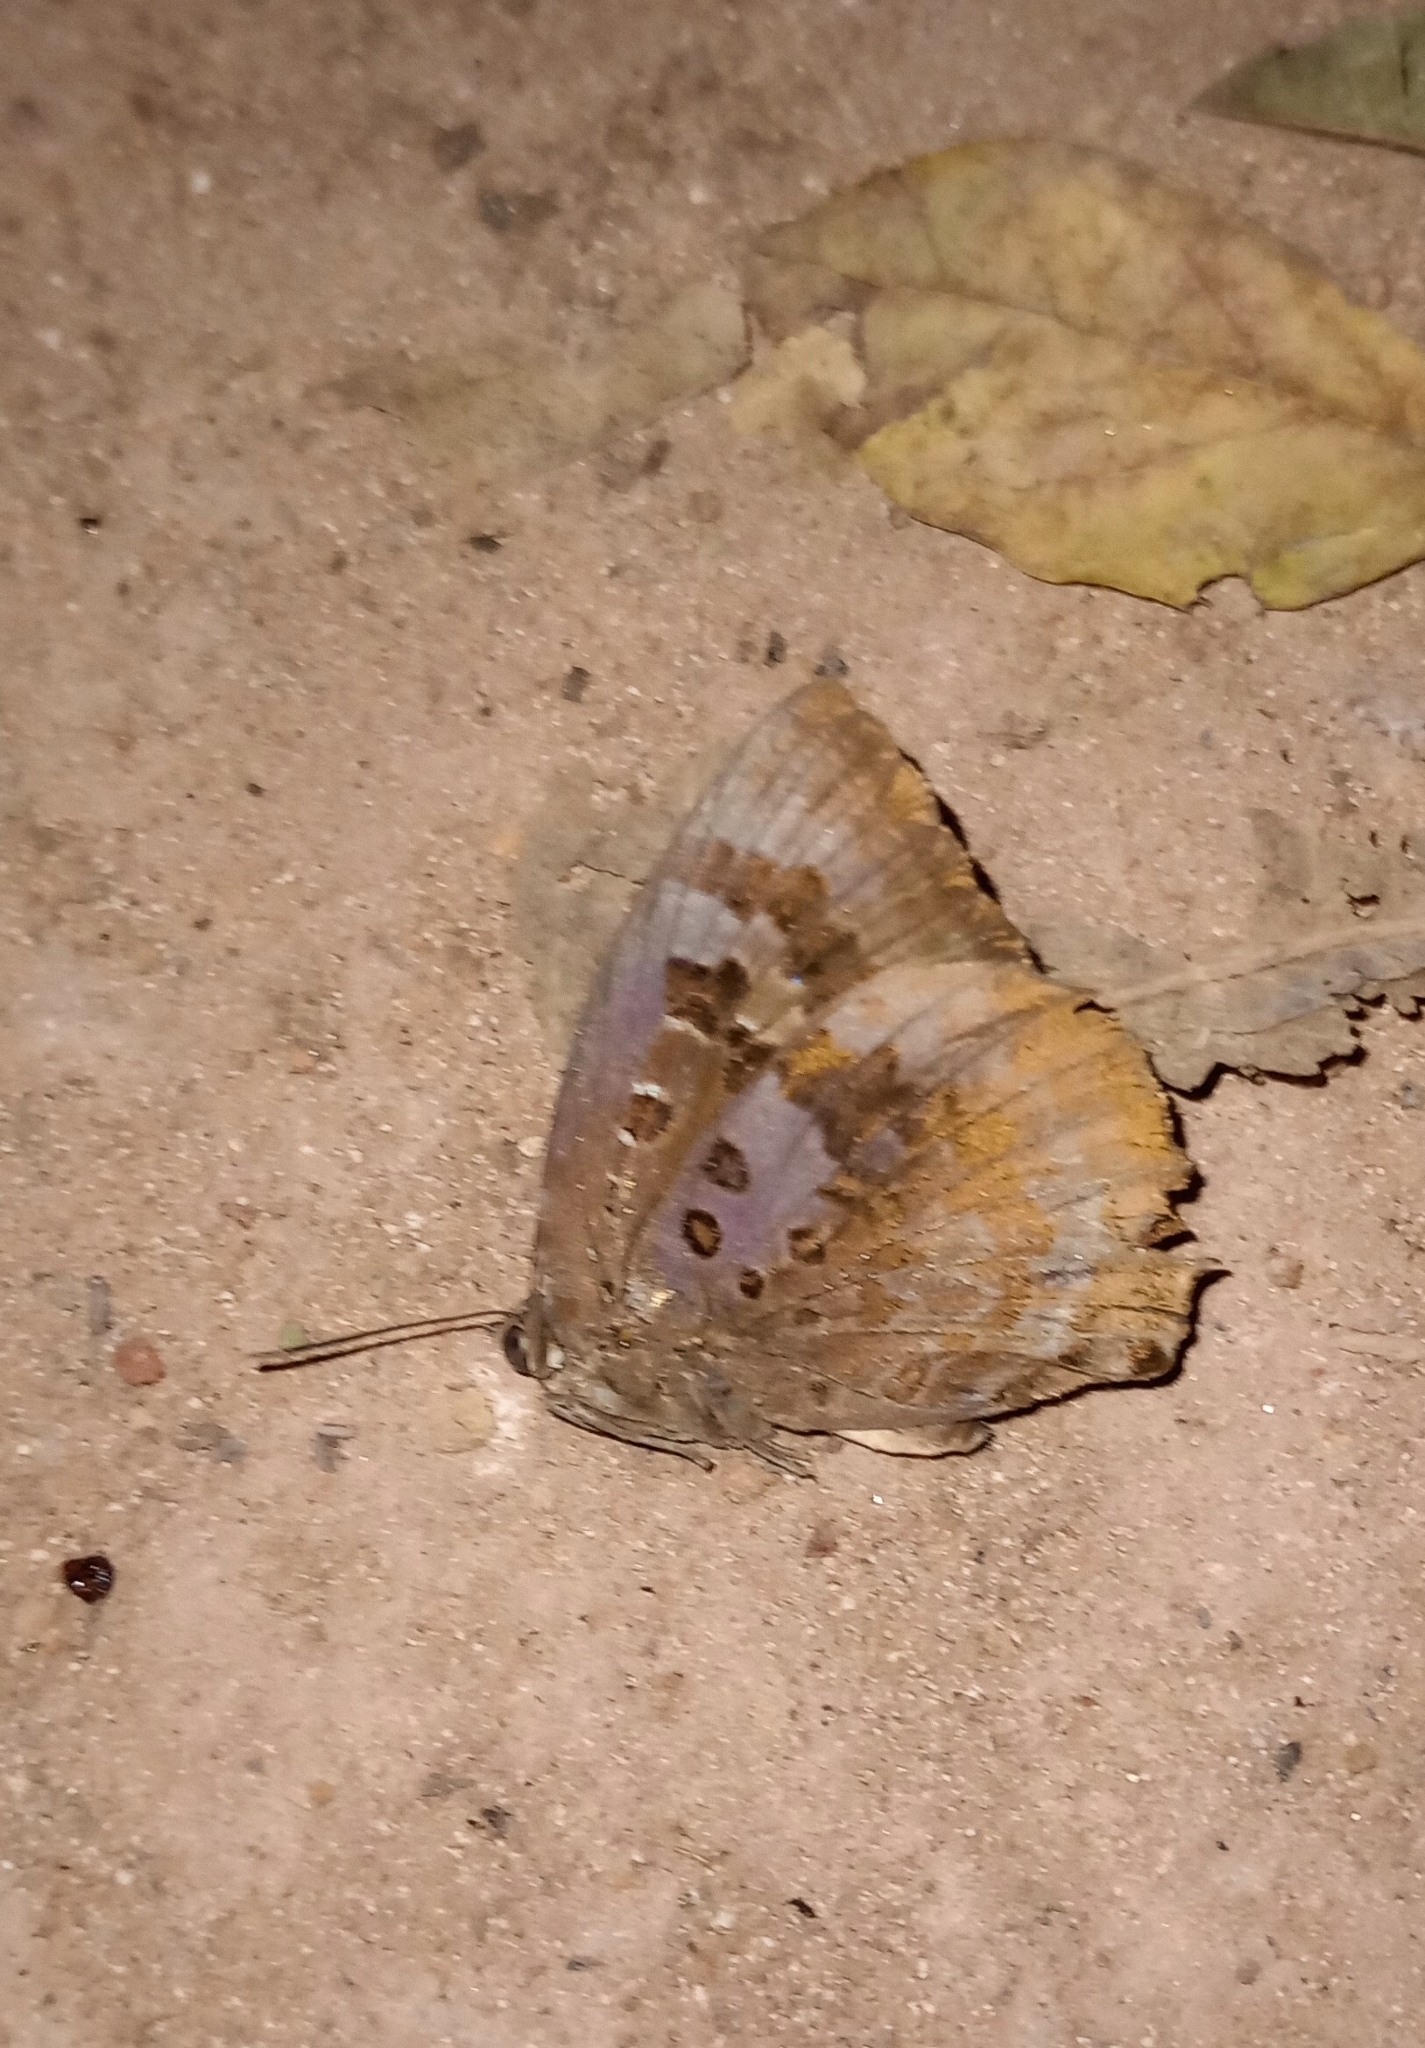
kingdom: Animalia
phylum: Arthropoda
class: Insecta
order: Lepidoptera
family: Lycaenidae
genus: Arhopala
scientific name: Arhopala amantes
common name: Large oakblue
